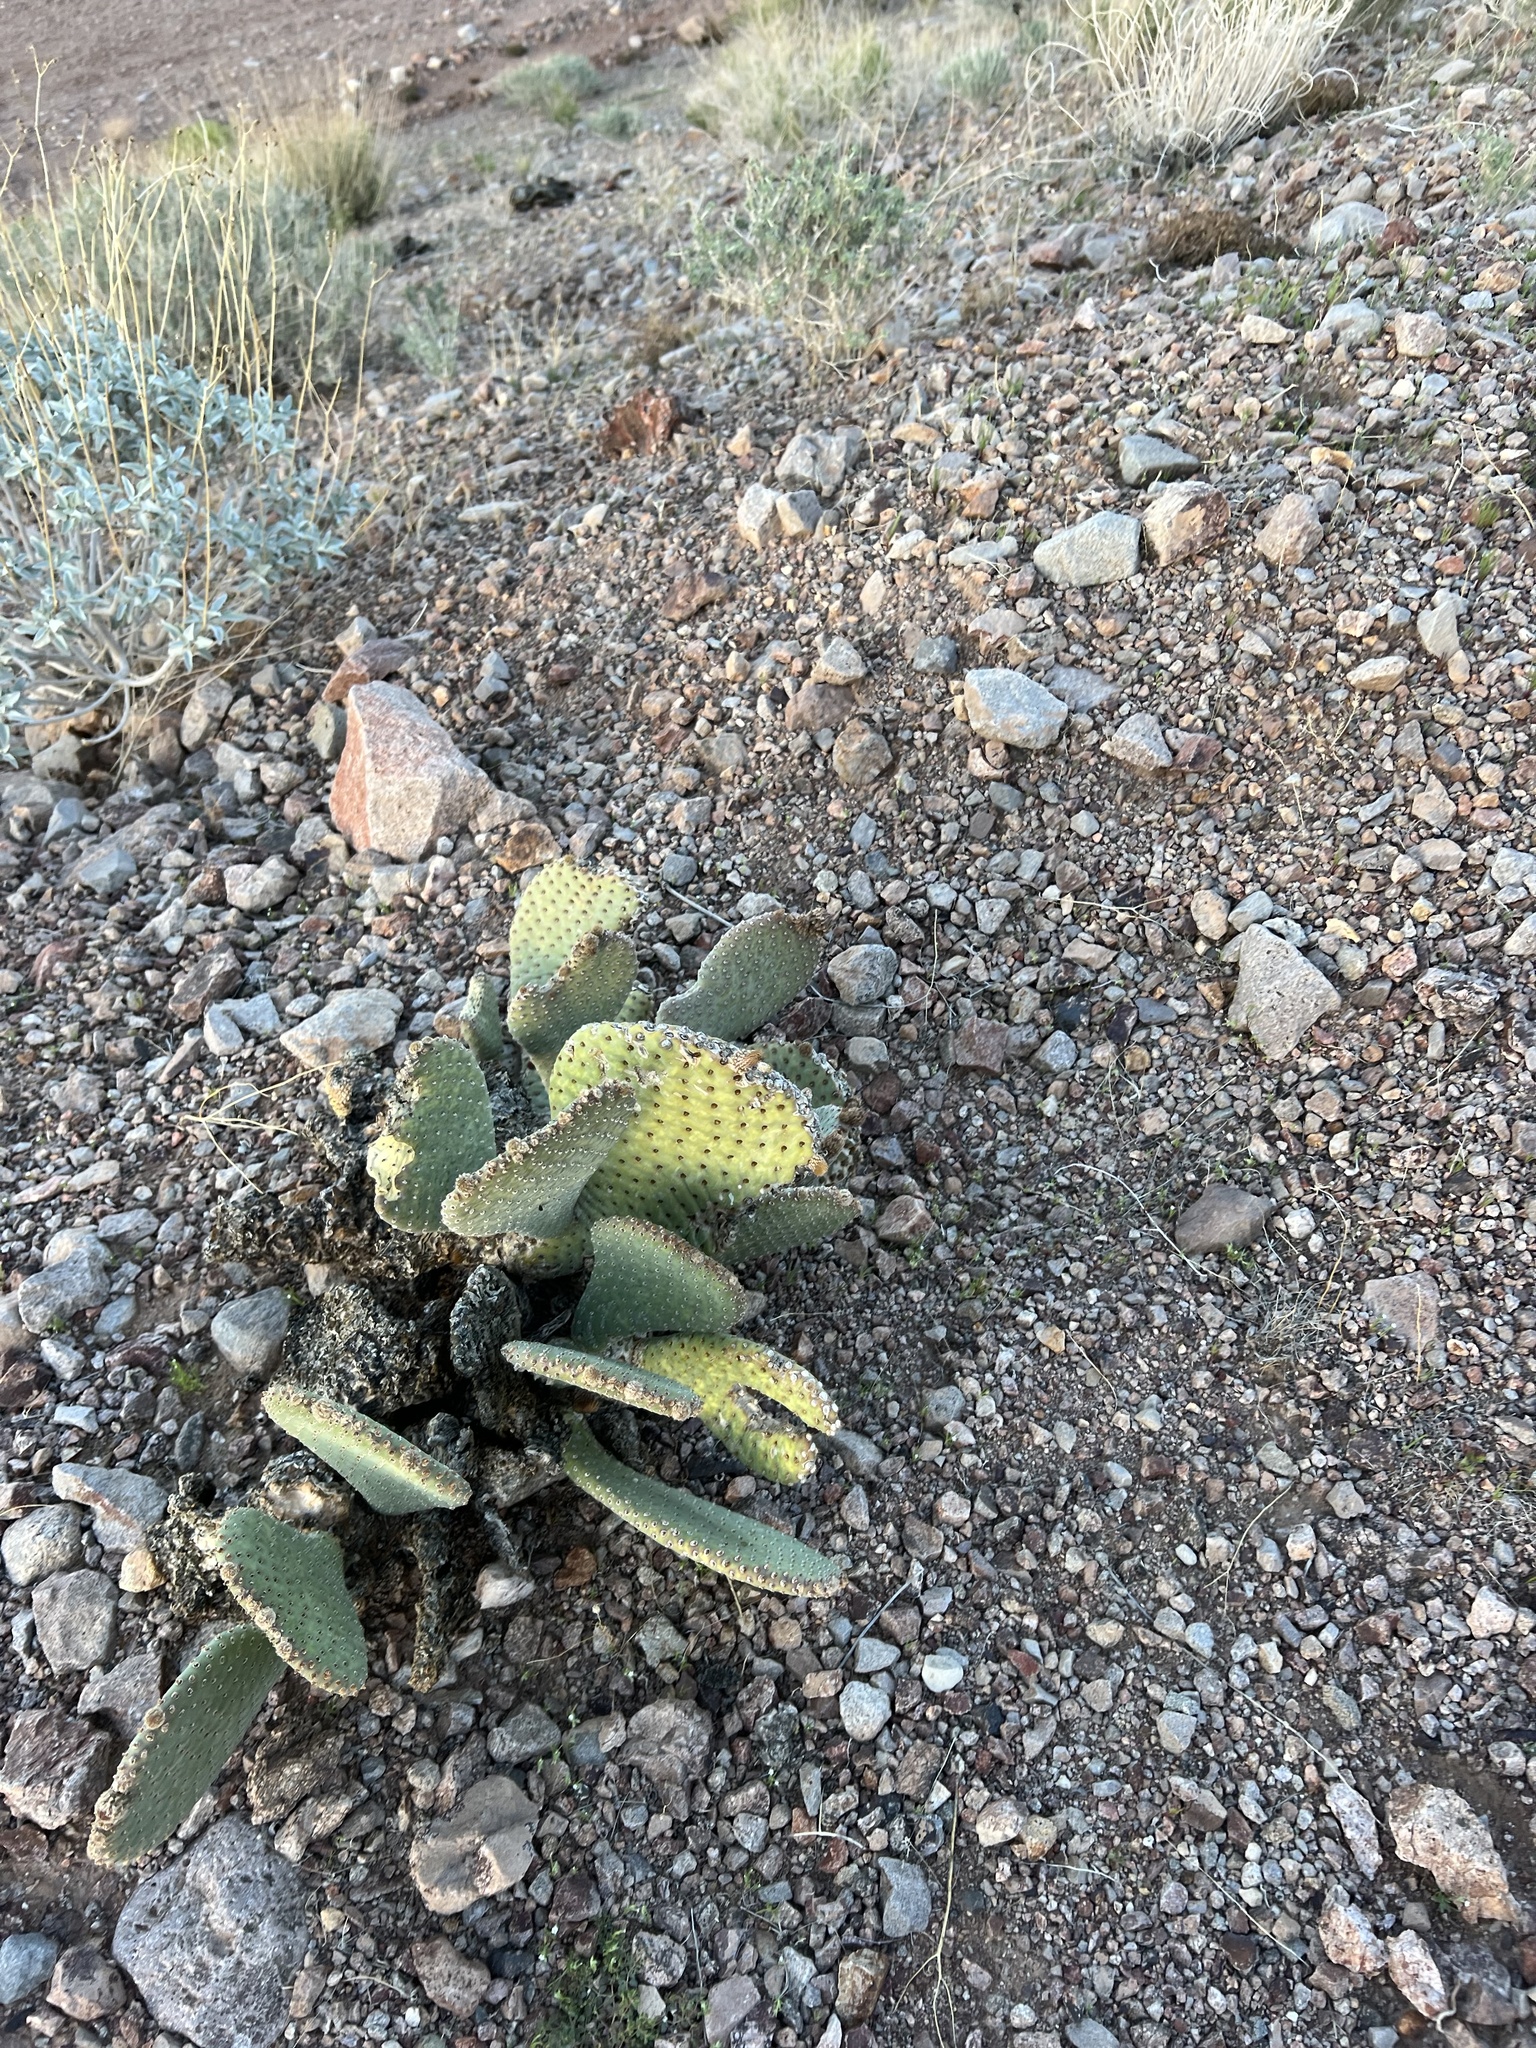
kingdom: Plantae
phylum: Tracheophyta
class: Magnoliopsida
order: Caryophyllales
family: Cactaceae
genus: Opuntia
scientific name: Opuntia basilaris
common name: Beavertail prickly-pear
